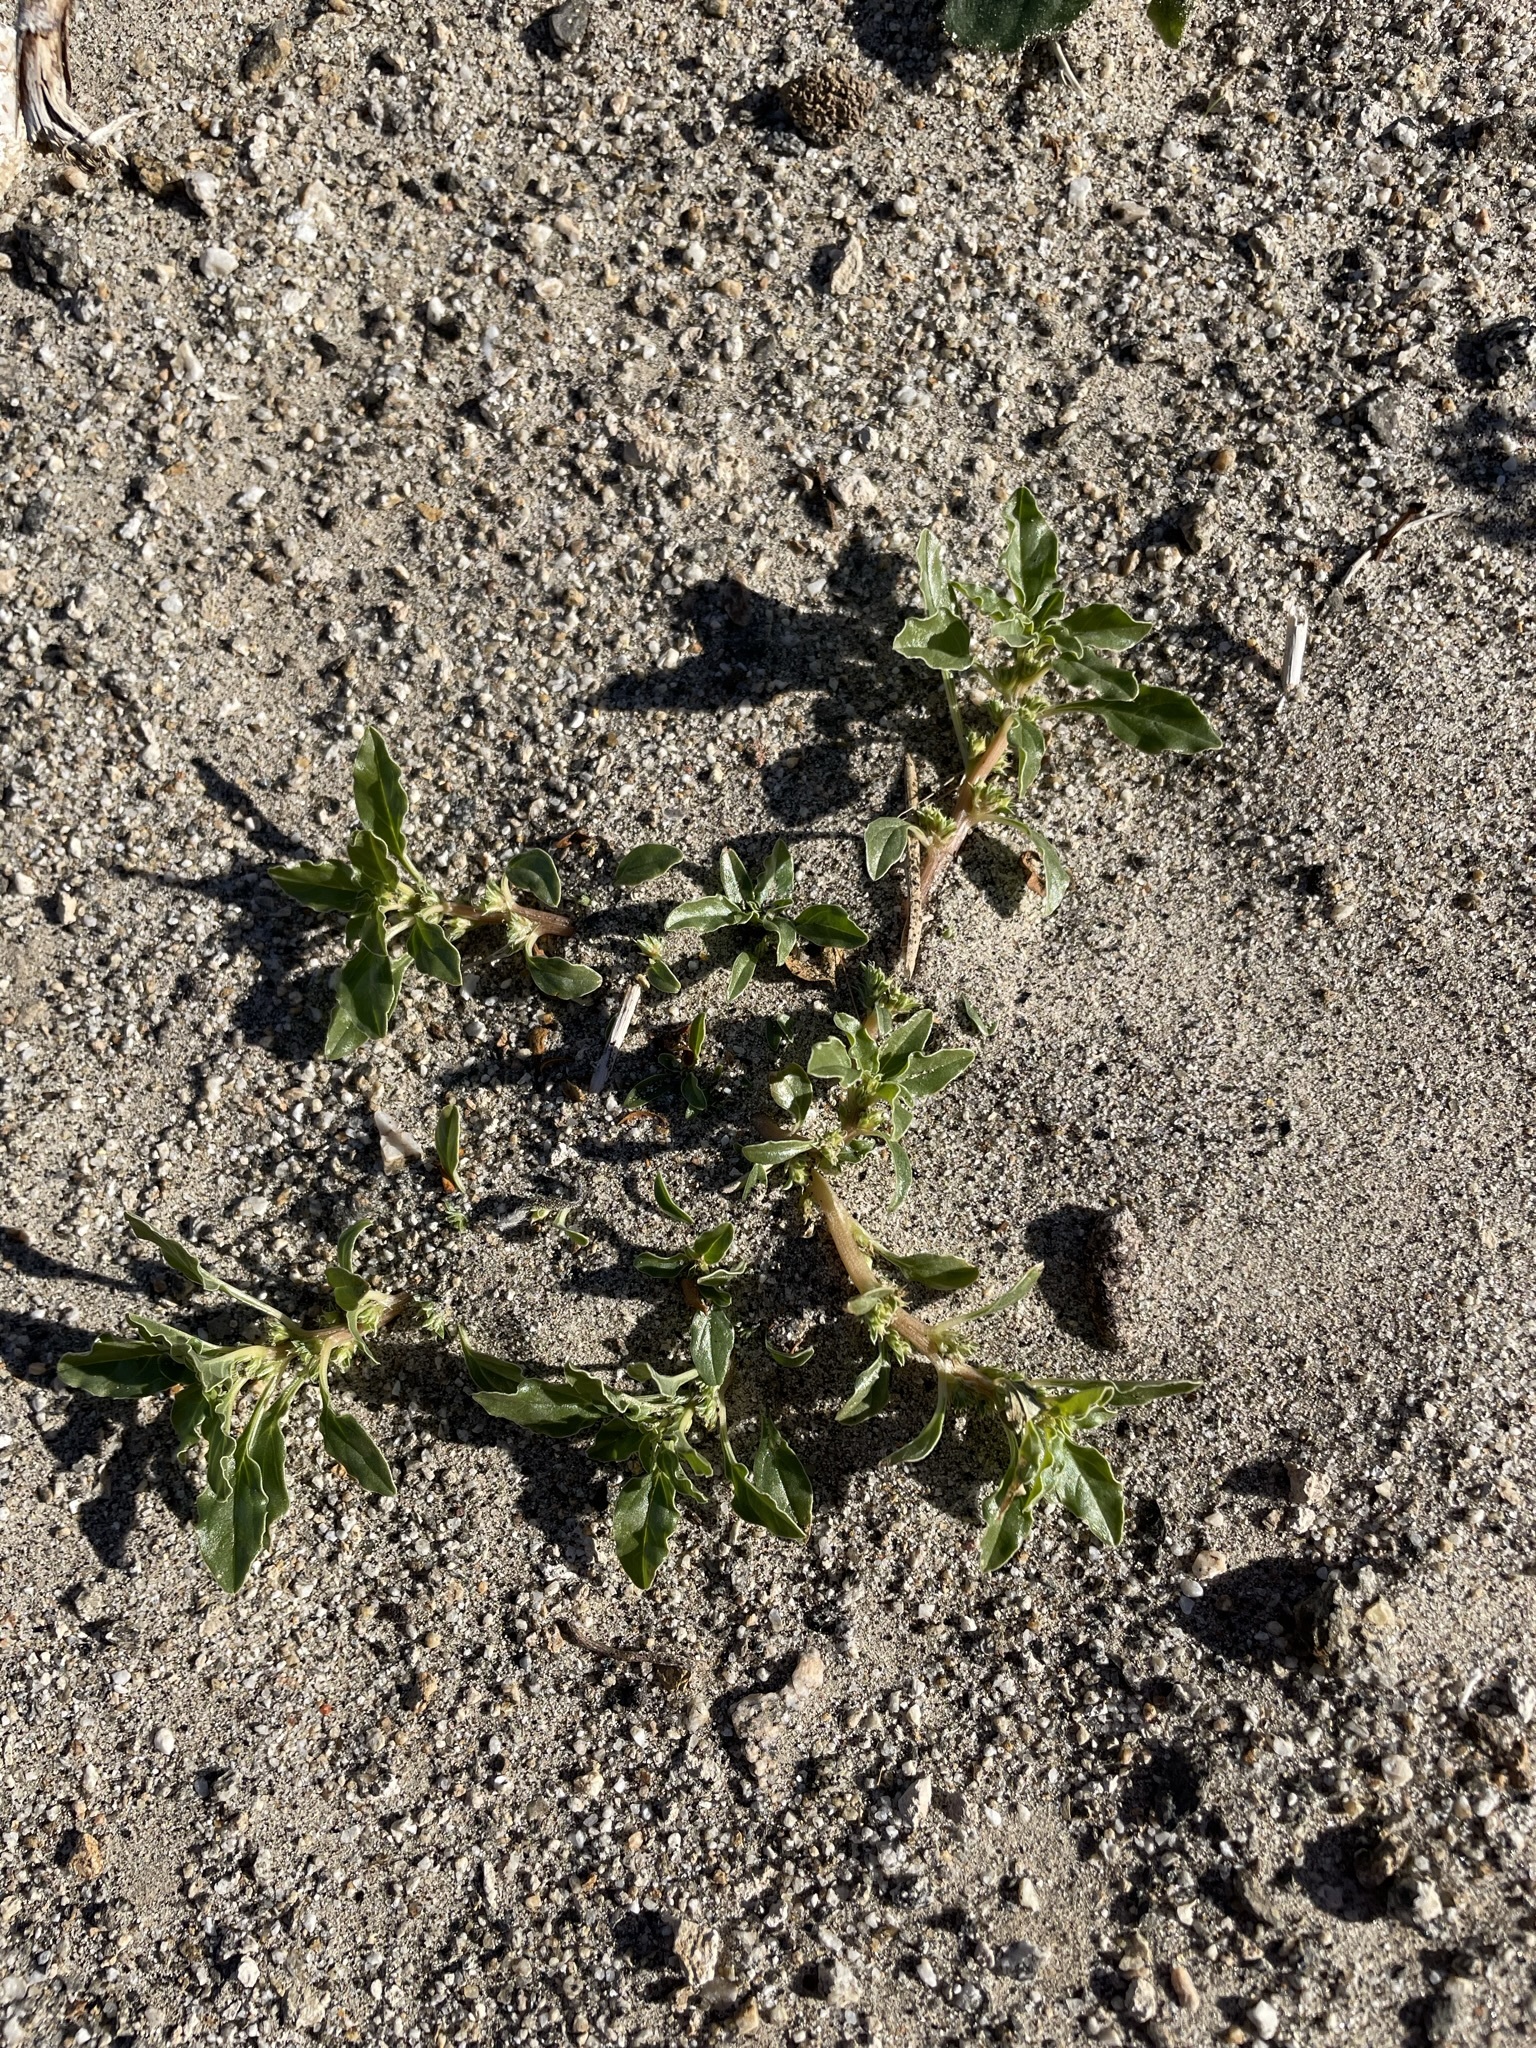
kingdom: Plantae
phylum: Tracheophyta
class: Magnoliopsida
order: Caryophyllales
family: Amaranthaceae
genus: Amaranthus
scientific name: Amaranthus blitoides
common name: Prostrate pigweed
